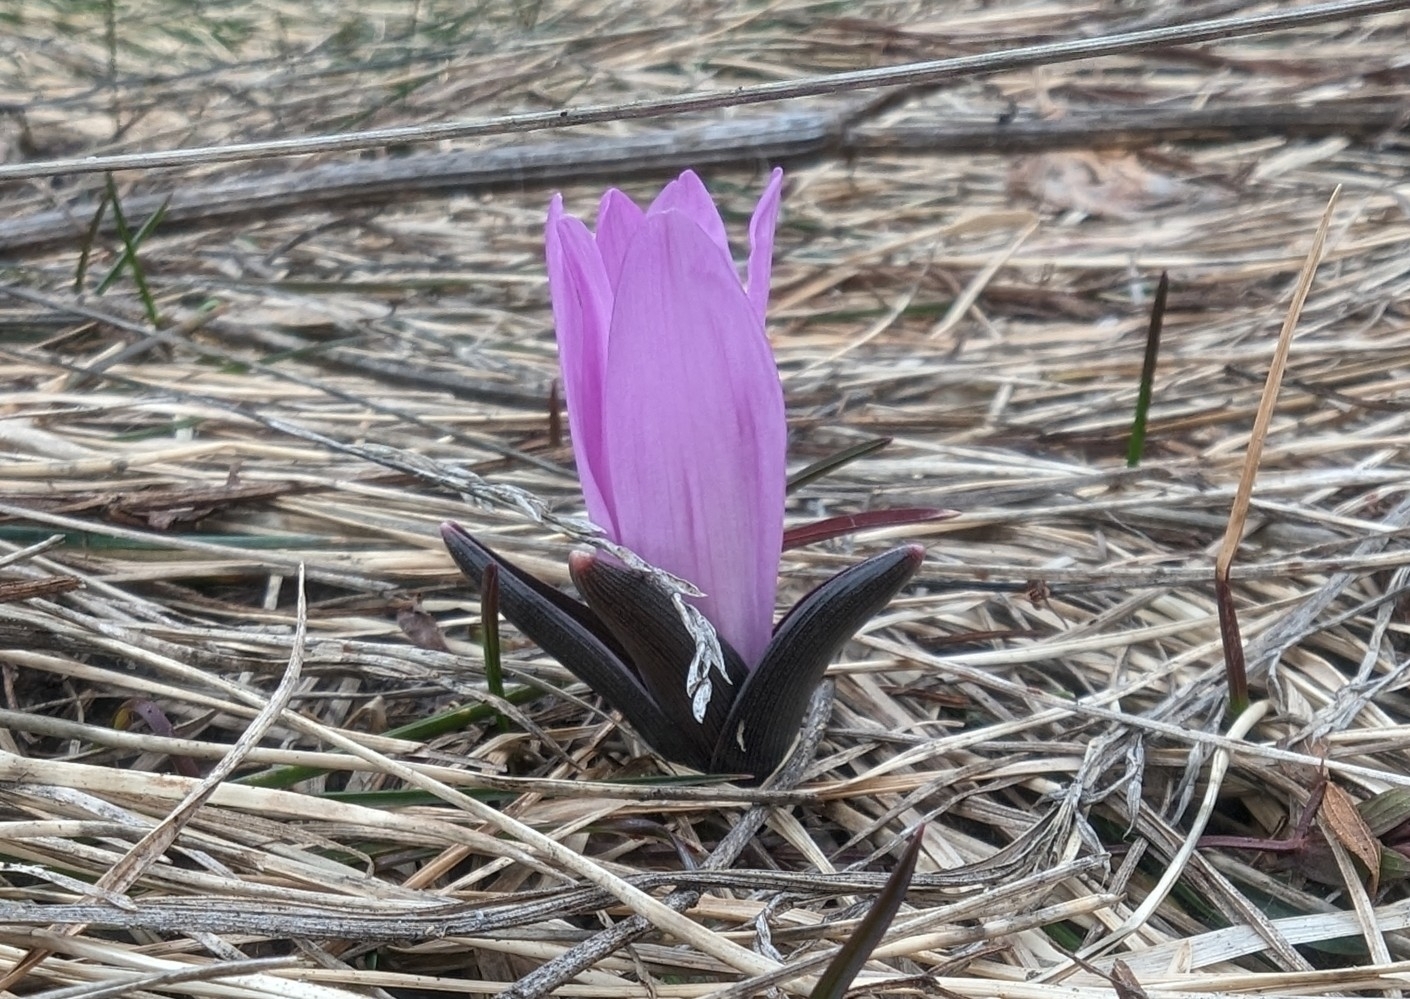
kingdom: Plantae
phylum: Tracheophyta
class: Liliopsida
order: Liliales
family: Colchicaceae
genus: Colchicum
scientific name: Colchicum bulbocodium
